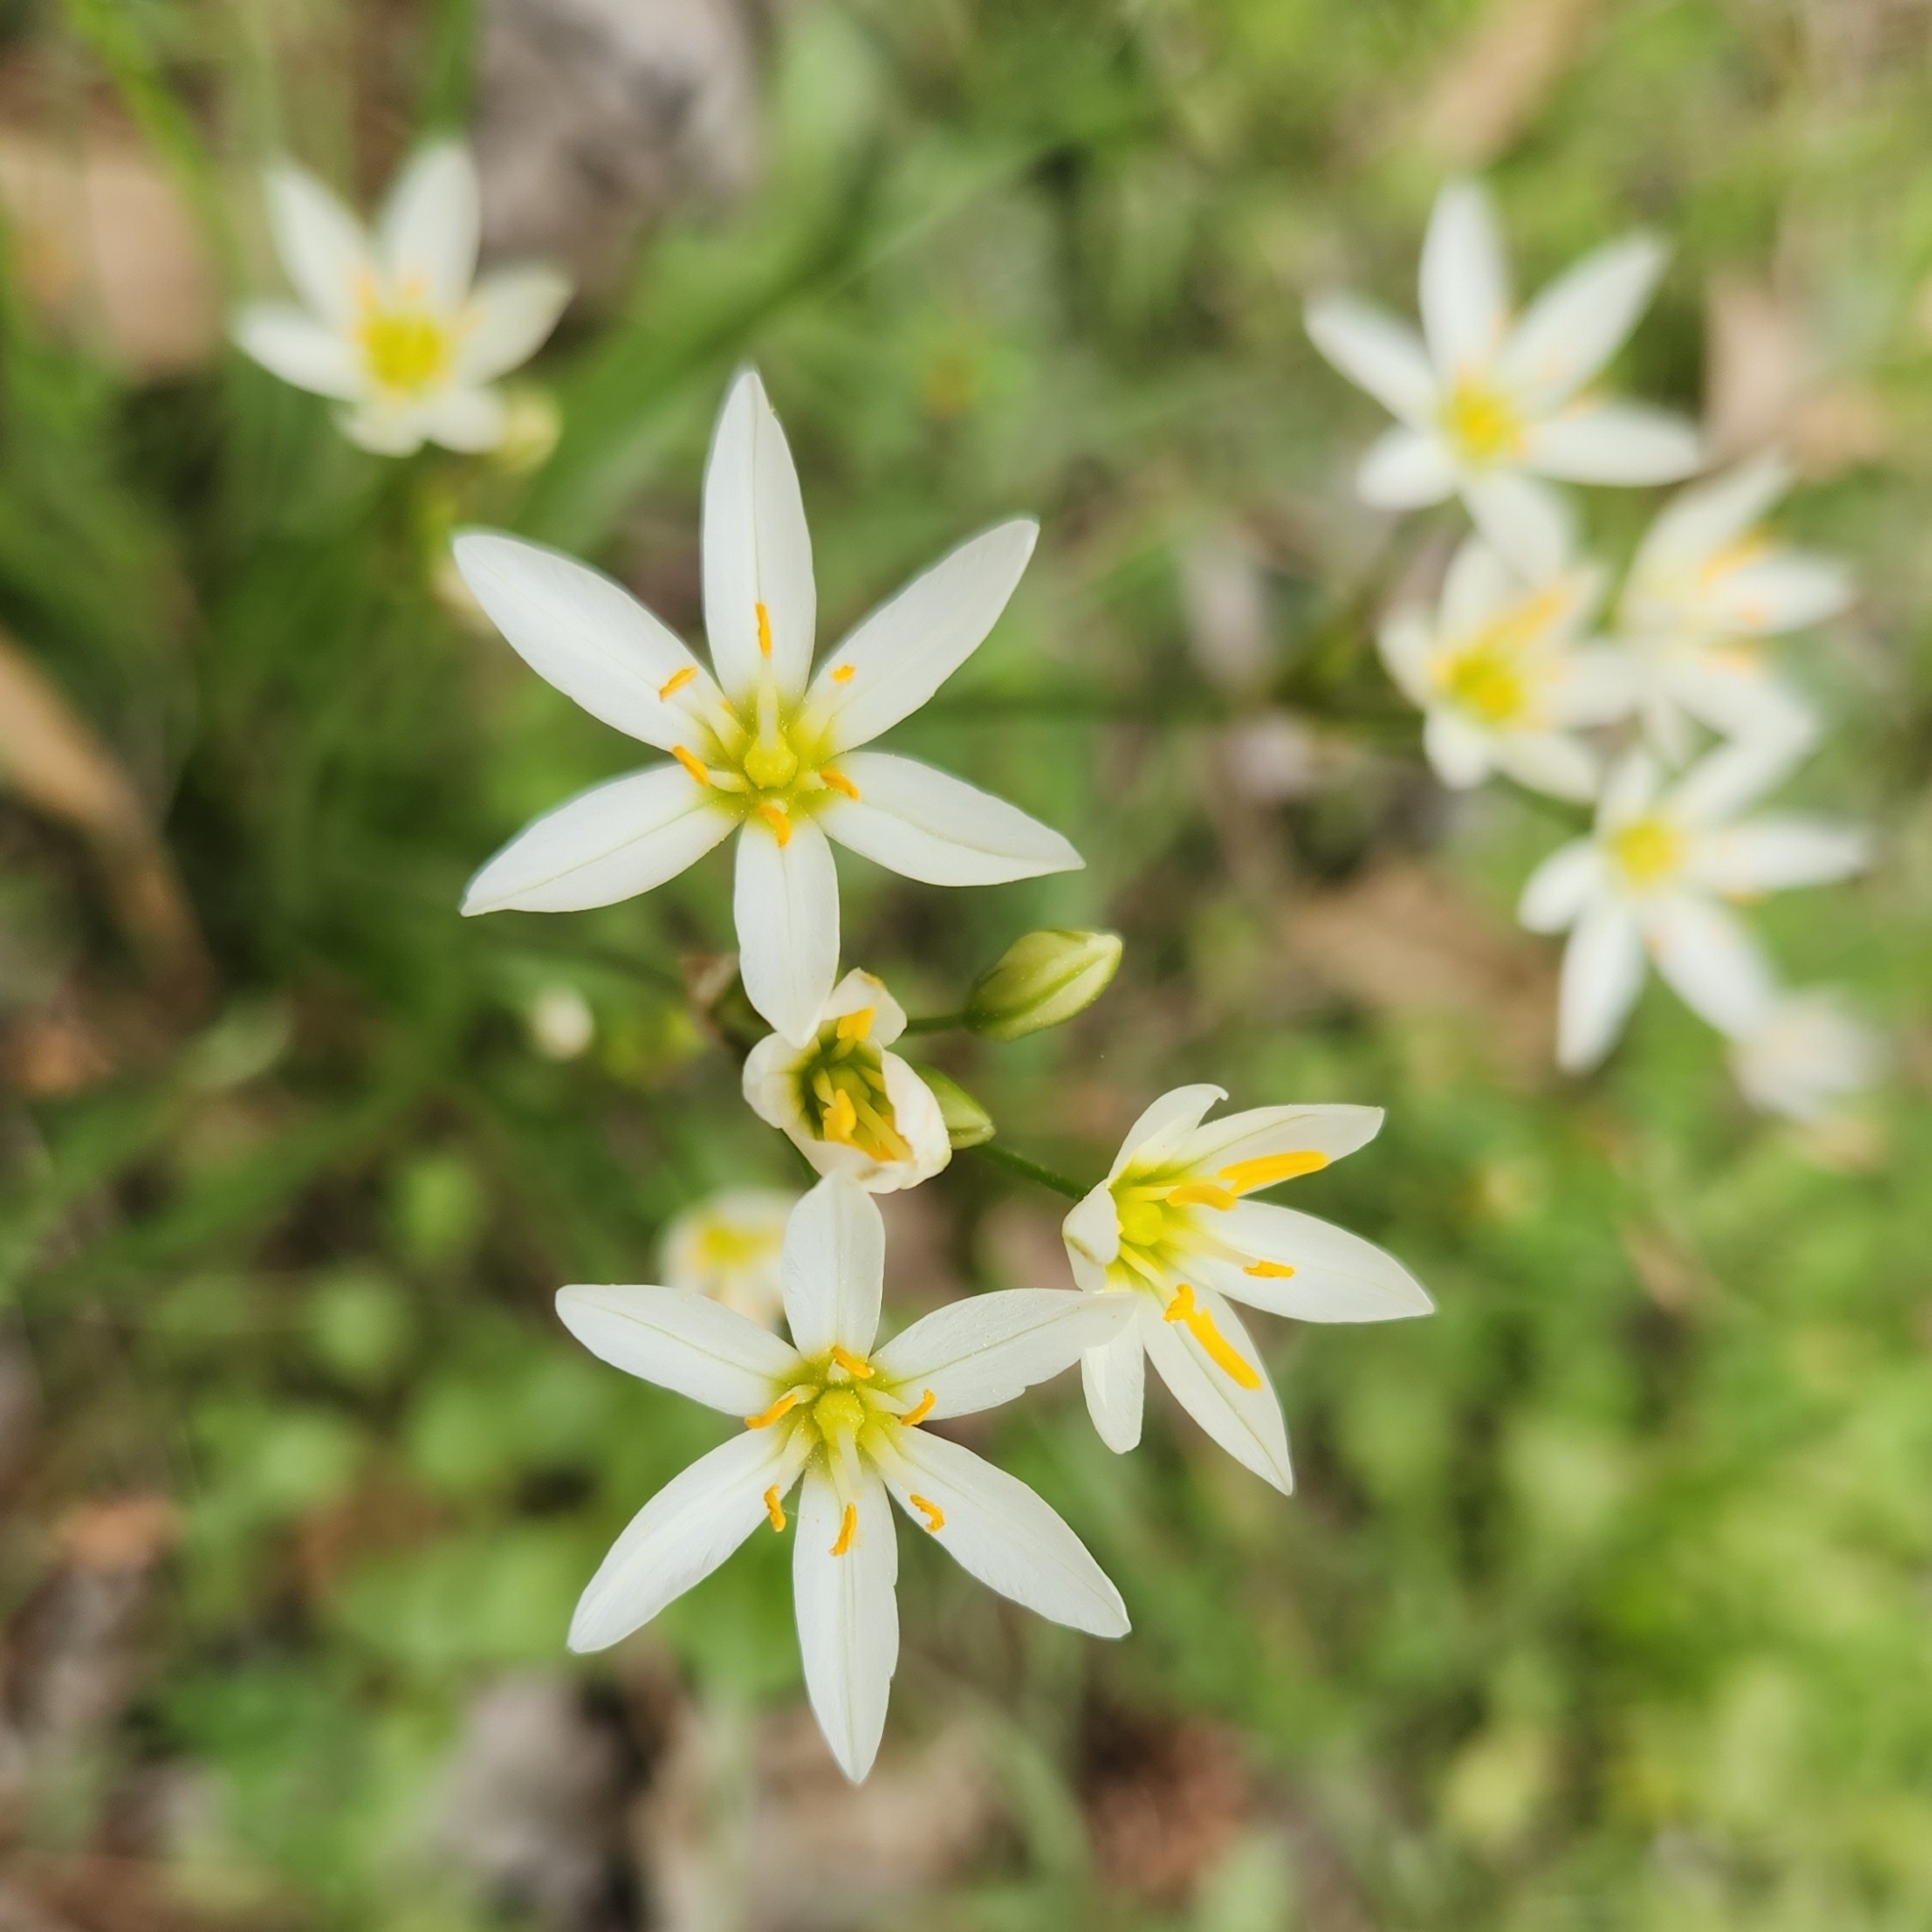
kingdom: Plantae
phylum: Tracheophyta
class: Liliopsida
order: Asparagales
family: Amaryllidaceae
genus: Nothoscordum
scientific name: Nothoscordum bivalve
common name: Crow-poison
